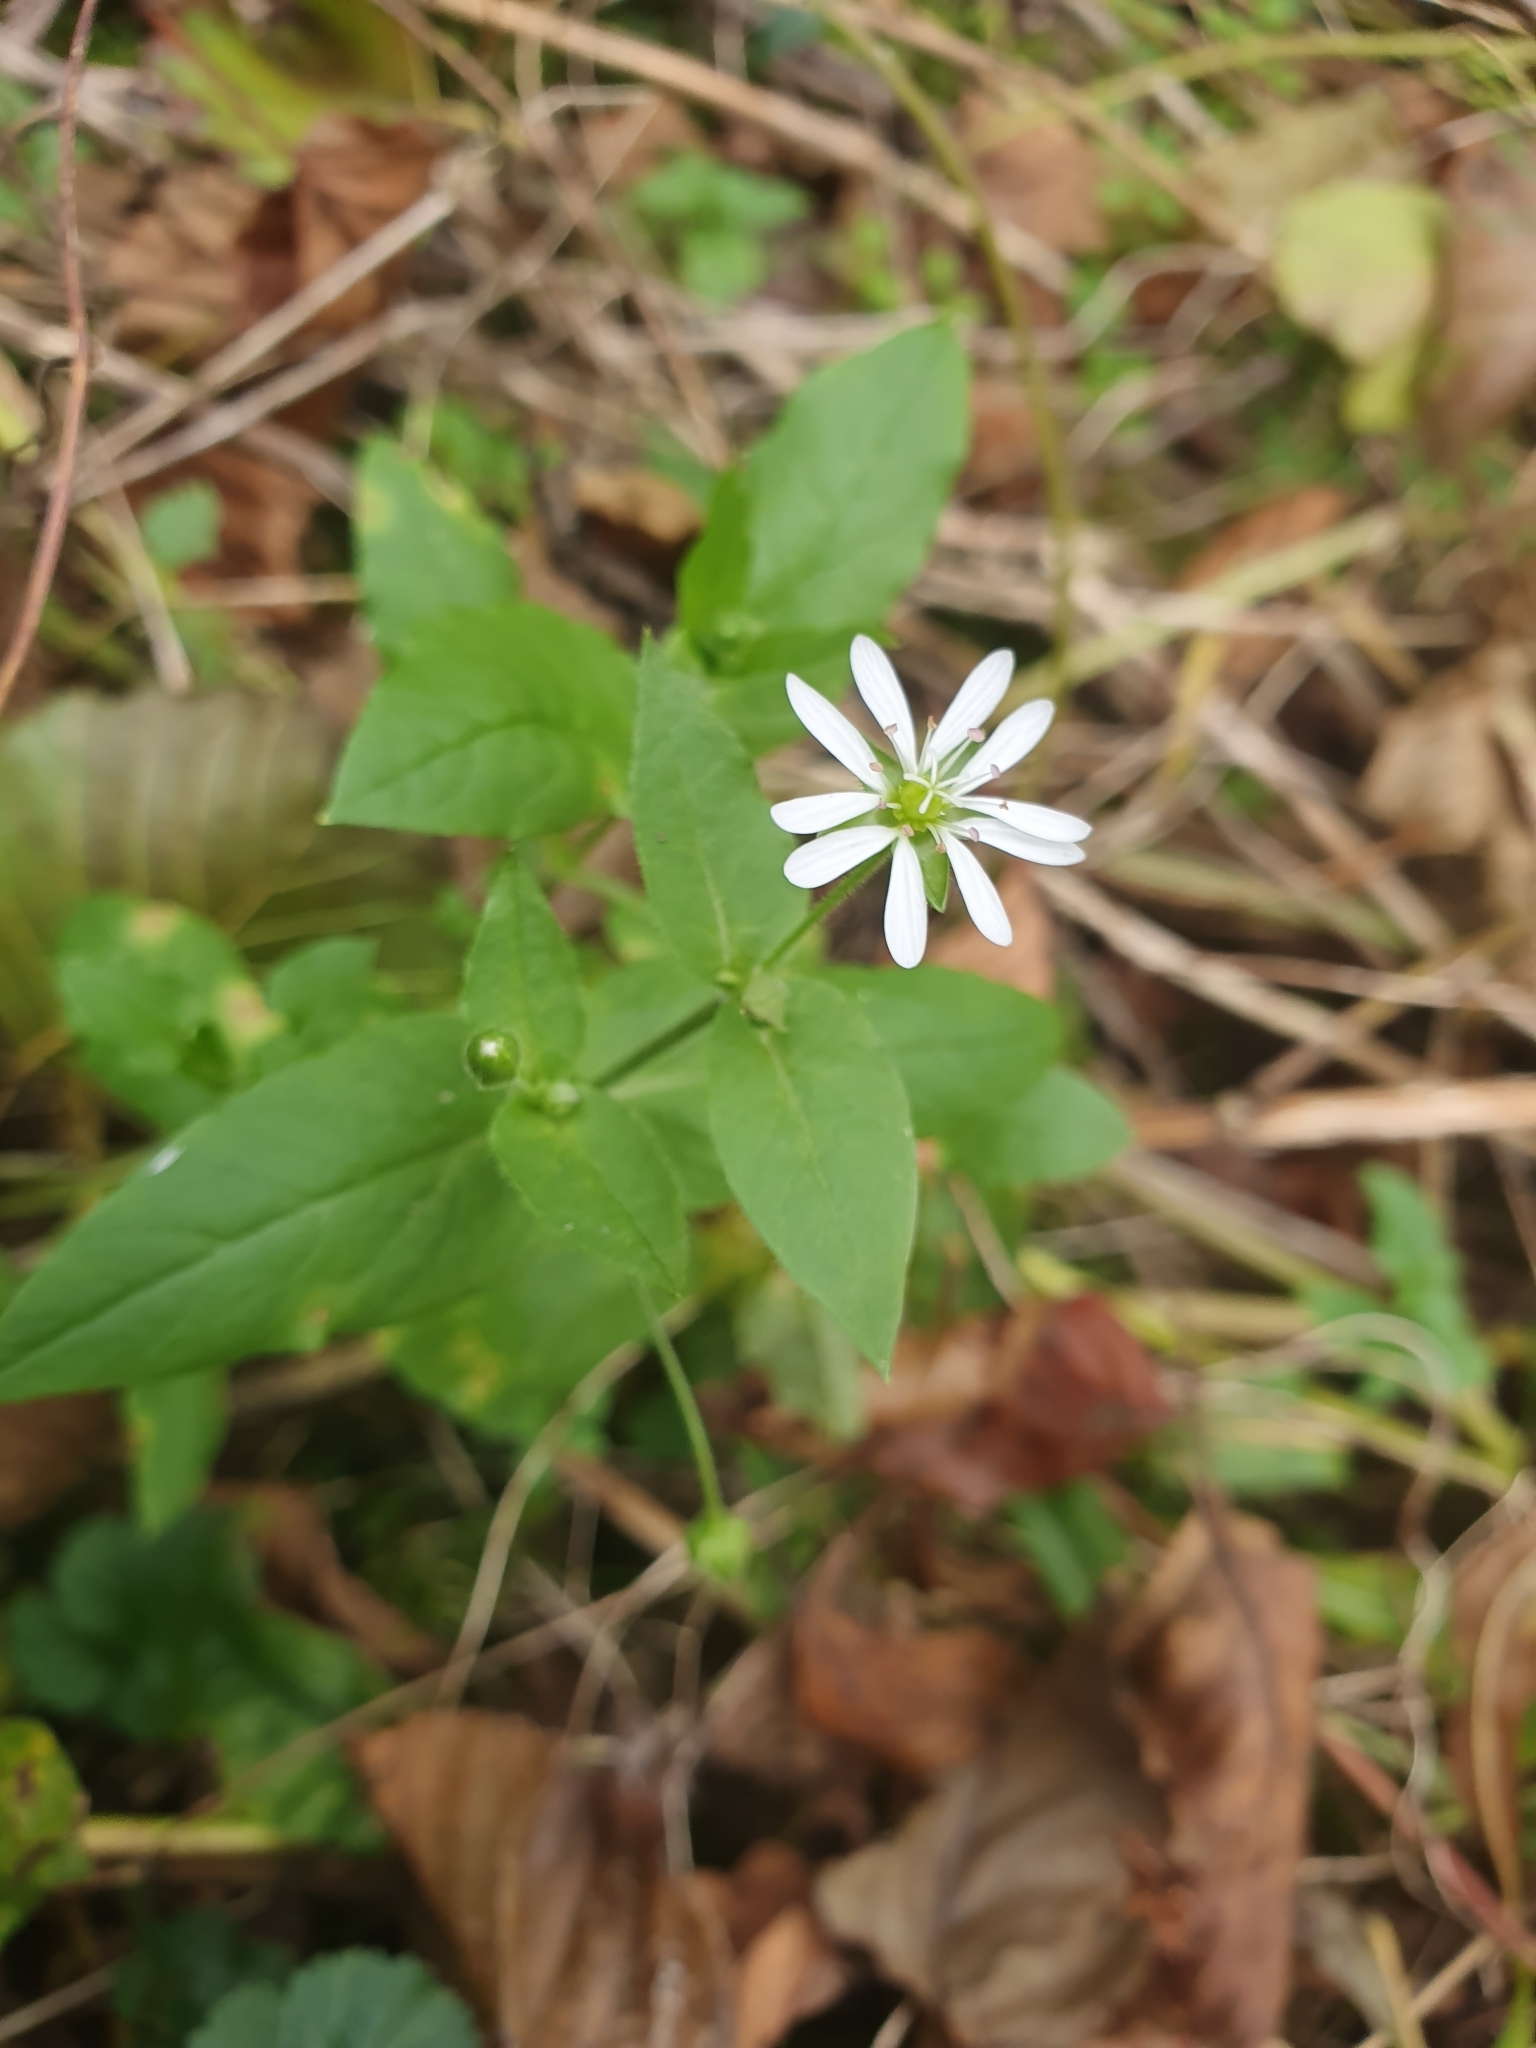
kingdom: Plantae
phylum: Tracheophyta
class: Magnoliopsida
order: Caryophyllales
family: Caryophyllaceae
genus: Stellaria
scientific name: Stellaria aquatica
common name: Water chickweed
